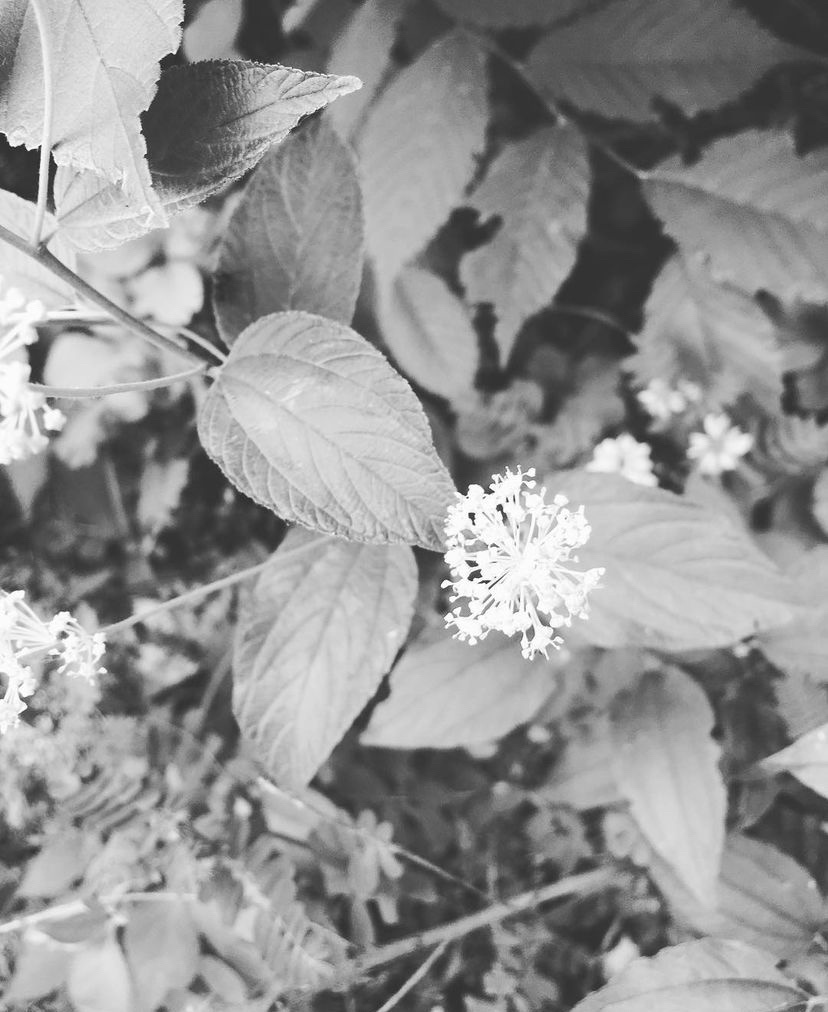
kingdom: Plantae
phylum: Tracheophyta
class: Magnoliopsida
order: Rosales
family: Rhamnaceae
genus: Ceanothus
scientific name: Ceanothus americanus
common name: Redroot
